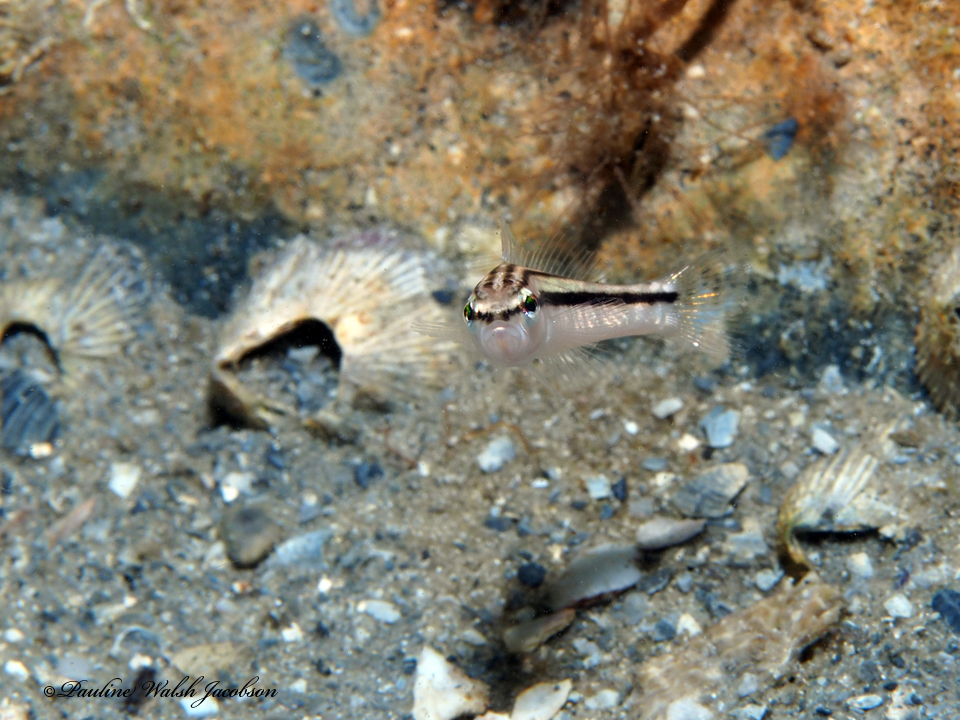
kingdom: Animalia
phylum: Chordata
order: Perciformes
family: Serranidae
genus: Diplectrum
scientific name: Diplectrum bivittatum
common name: Dwarf sand perch
